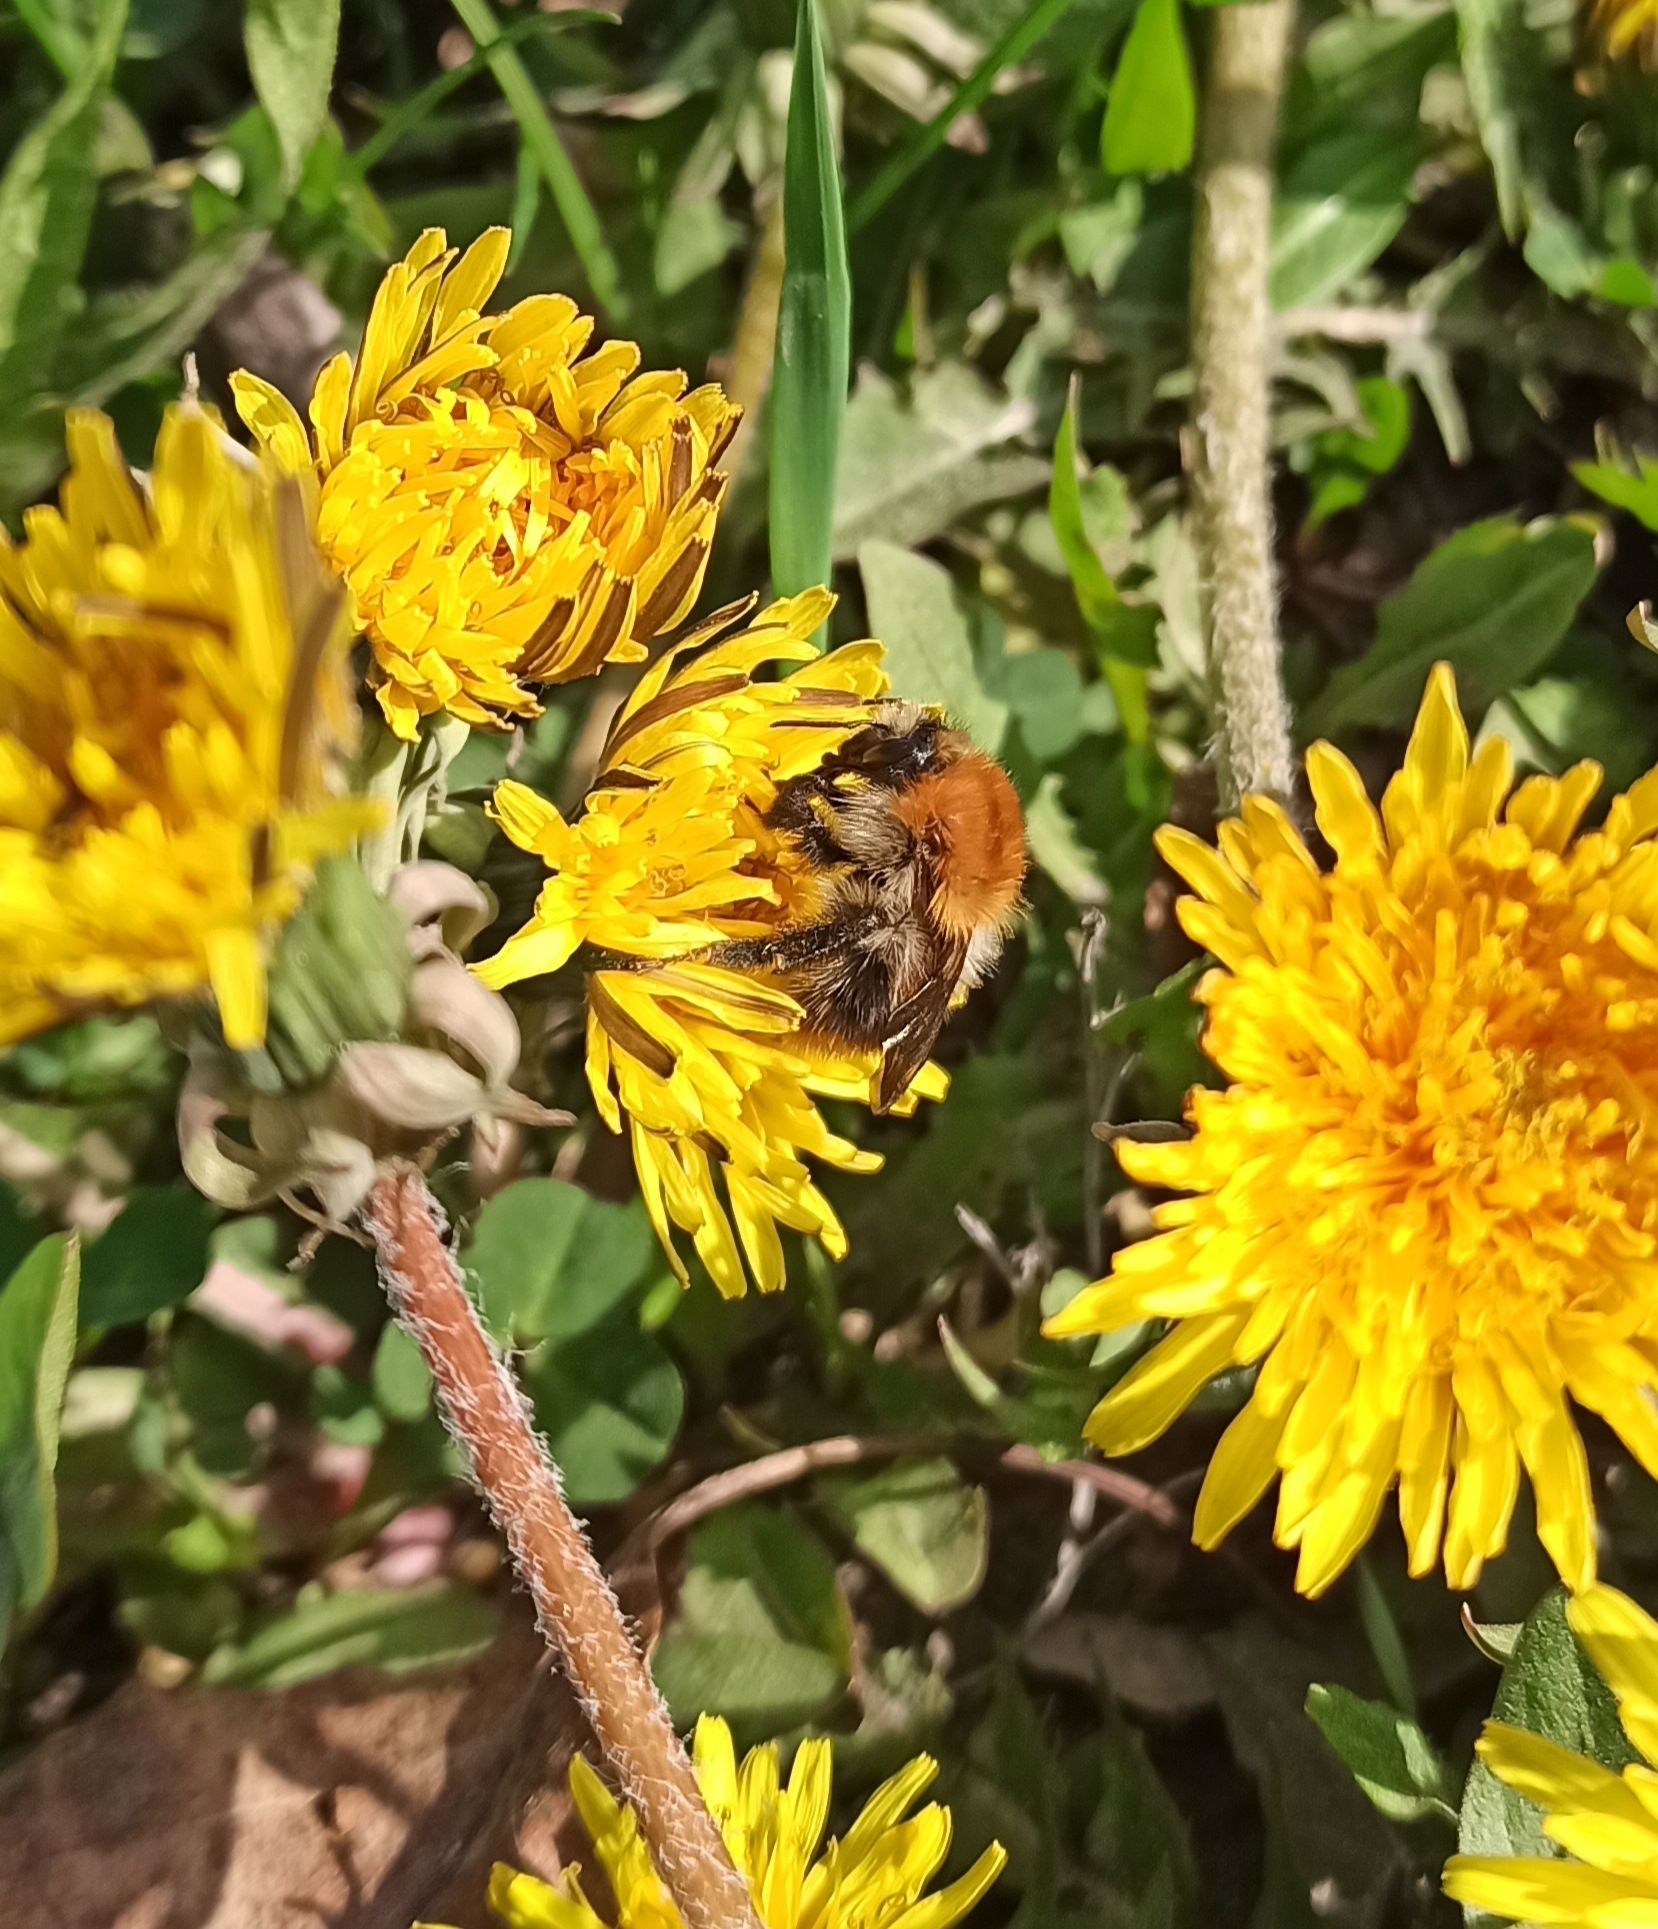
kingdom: Animalia
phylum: Arthropoda
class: Insecta
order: Hymenoptera
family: Apidae
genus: Bombus
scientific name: Bombus pascuorum
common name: Common carder bee
